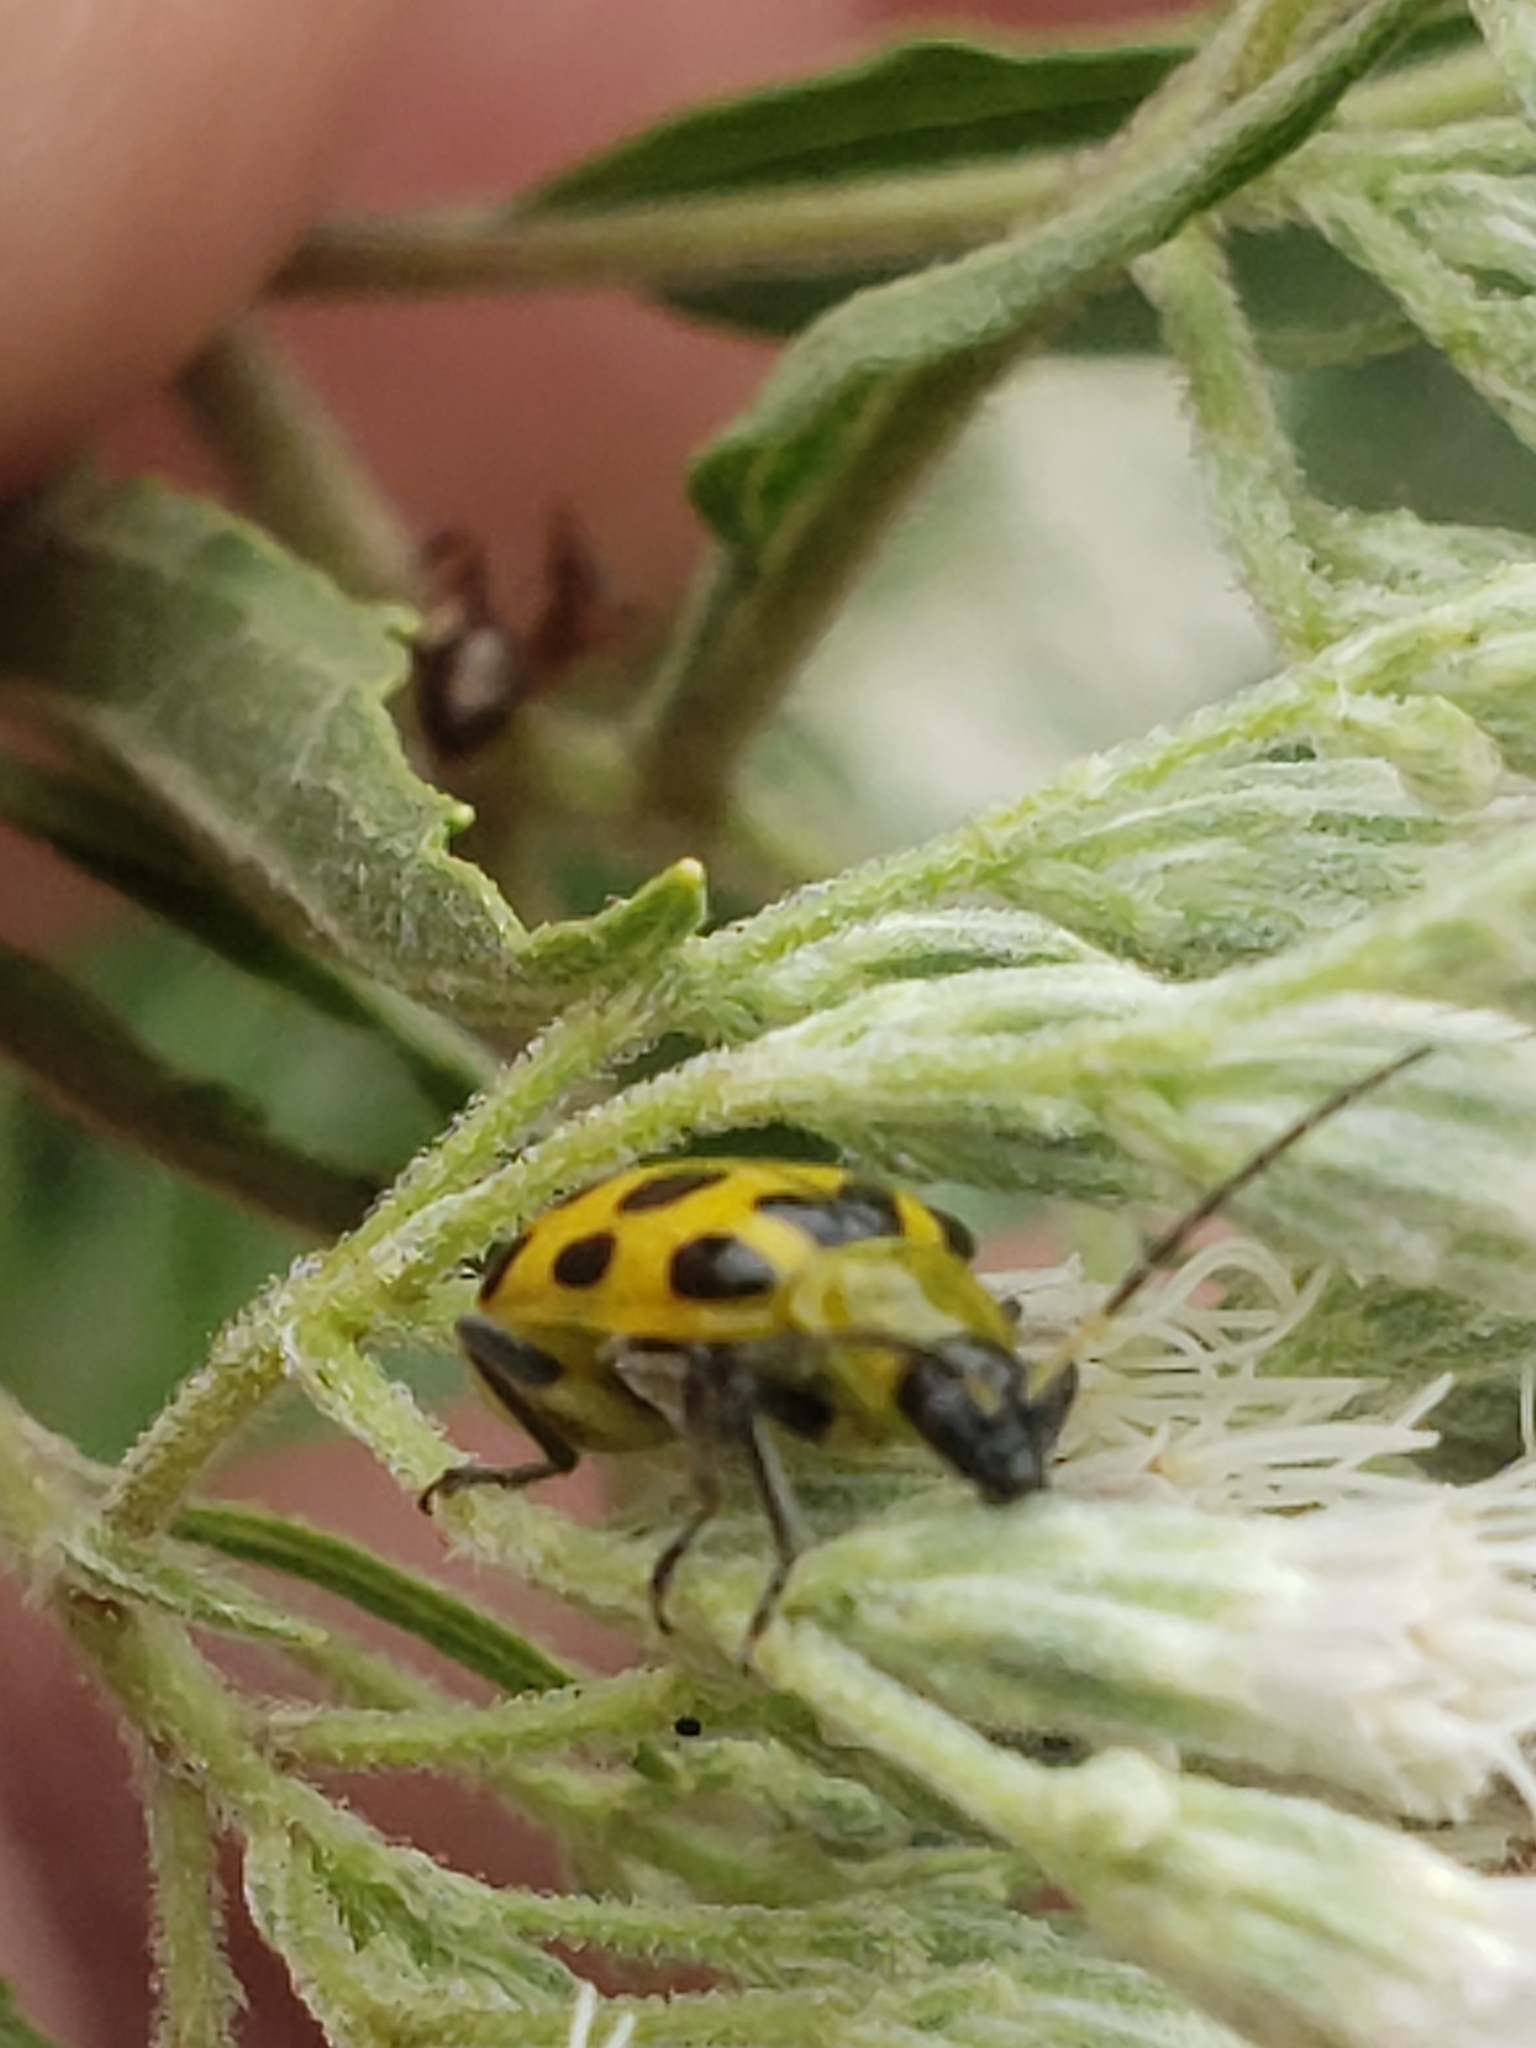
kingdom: Animalia
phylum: Arthropoda
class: Insecta
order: Coleoptera
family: Chrysomelidae
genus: Diabrotica
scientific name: Diabrotica undecimpunctata
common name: Spotted cucumber beetle
